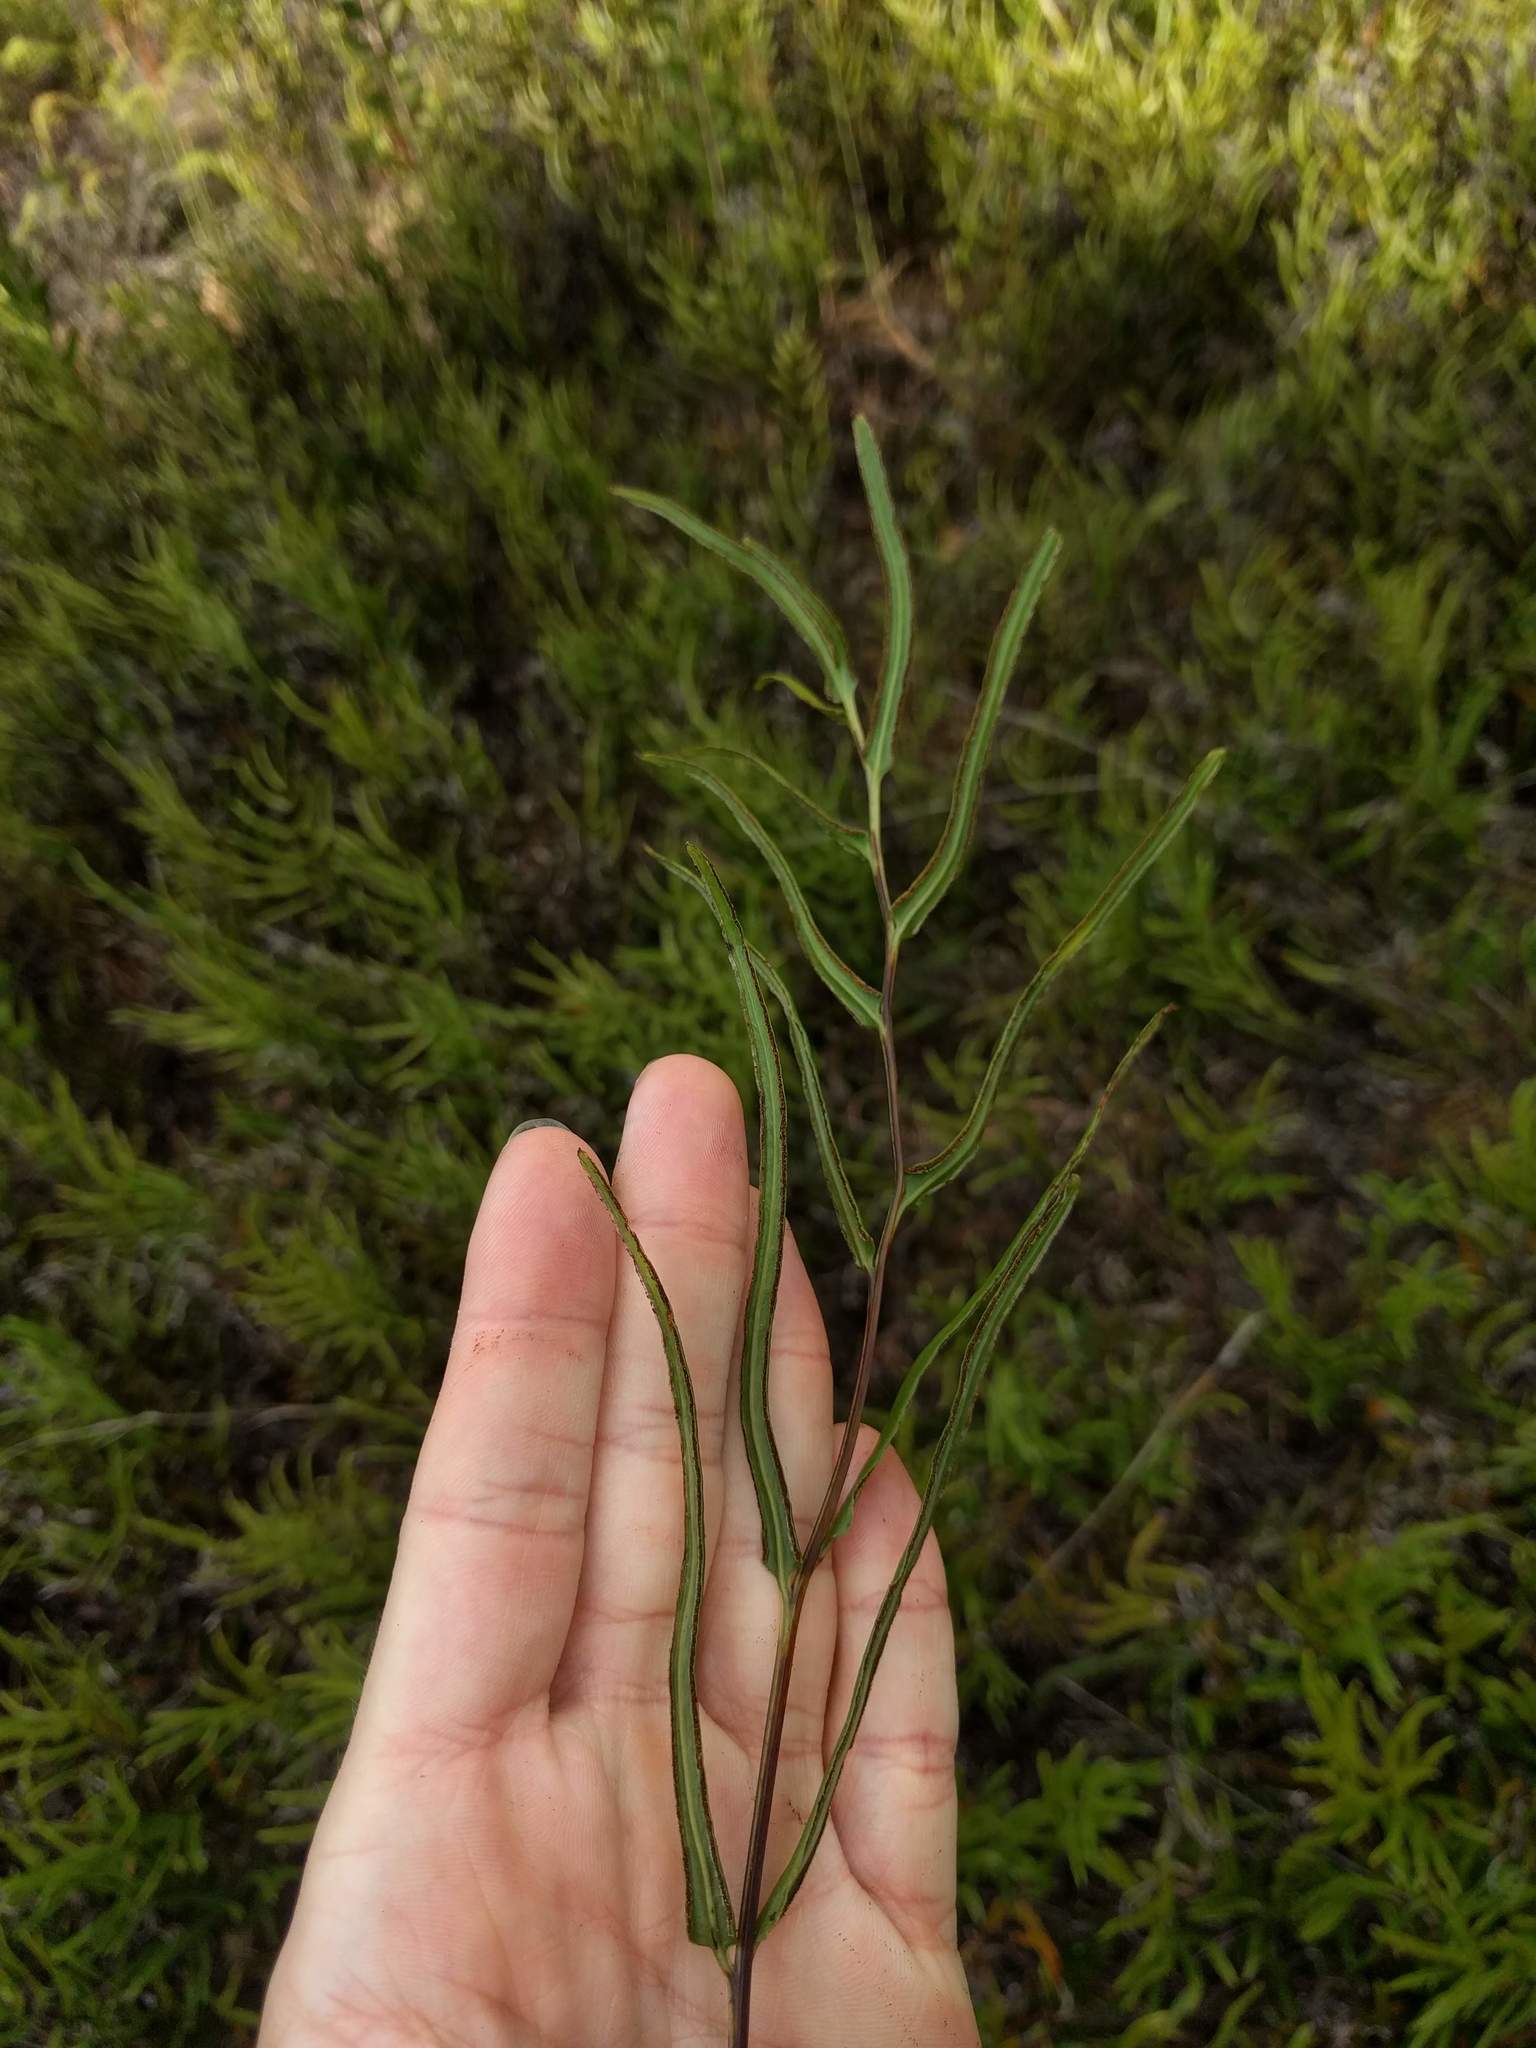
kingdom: Plantae
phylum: Tracheophyta
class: Polypodiopsida
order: Polypodiales
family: Lindsaeaceae
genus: Lindsaea
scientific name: Lindsaea ensifolia
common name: Graceful necklace fern
